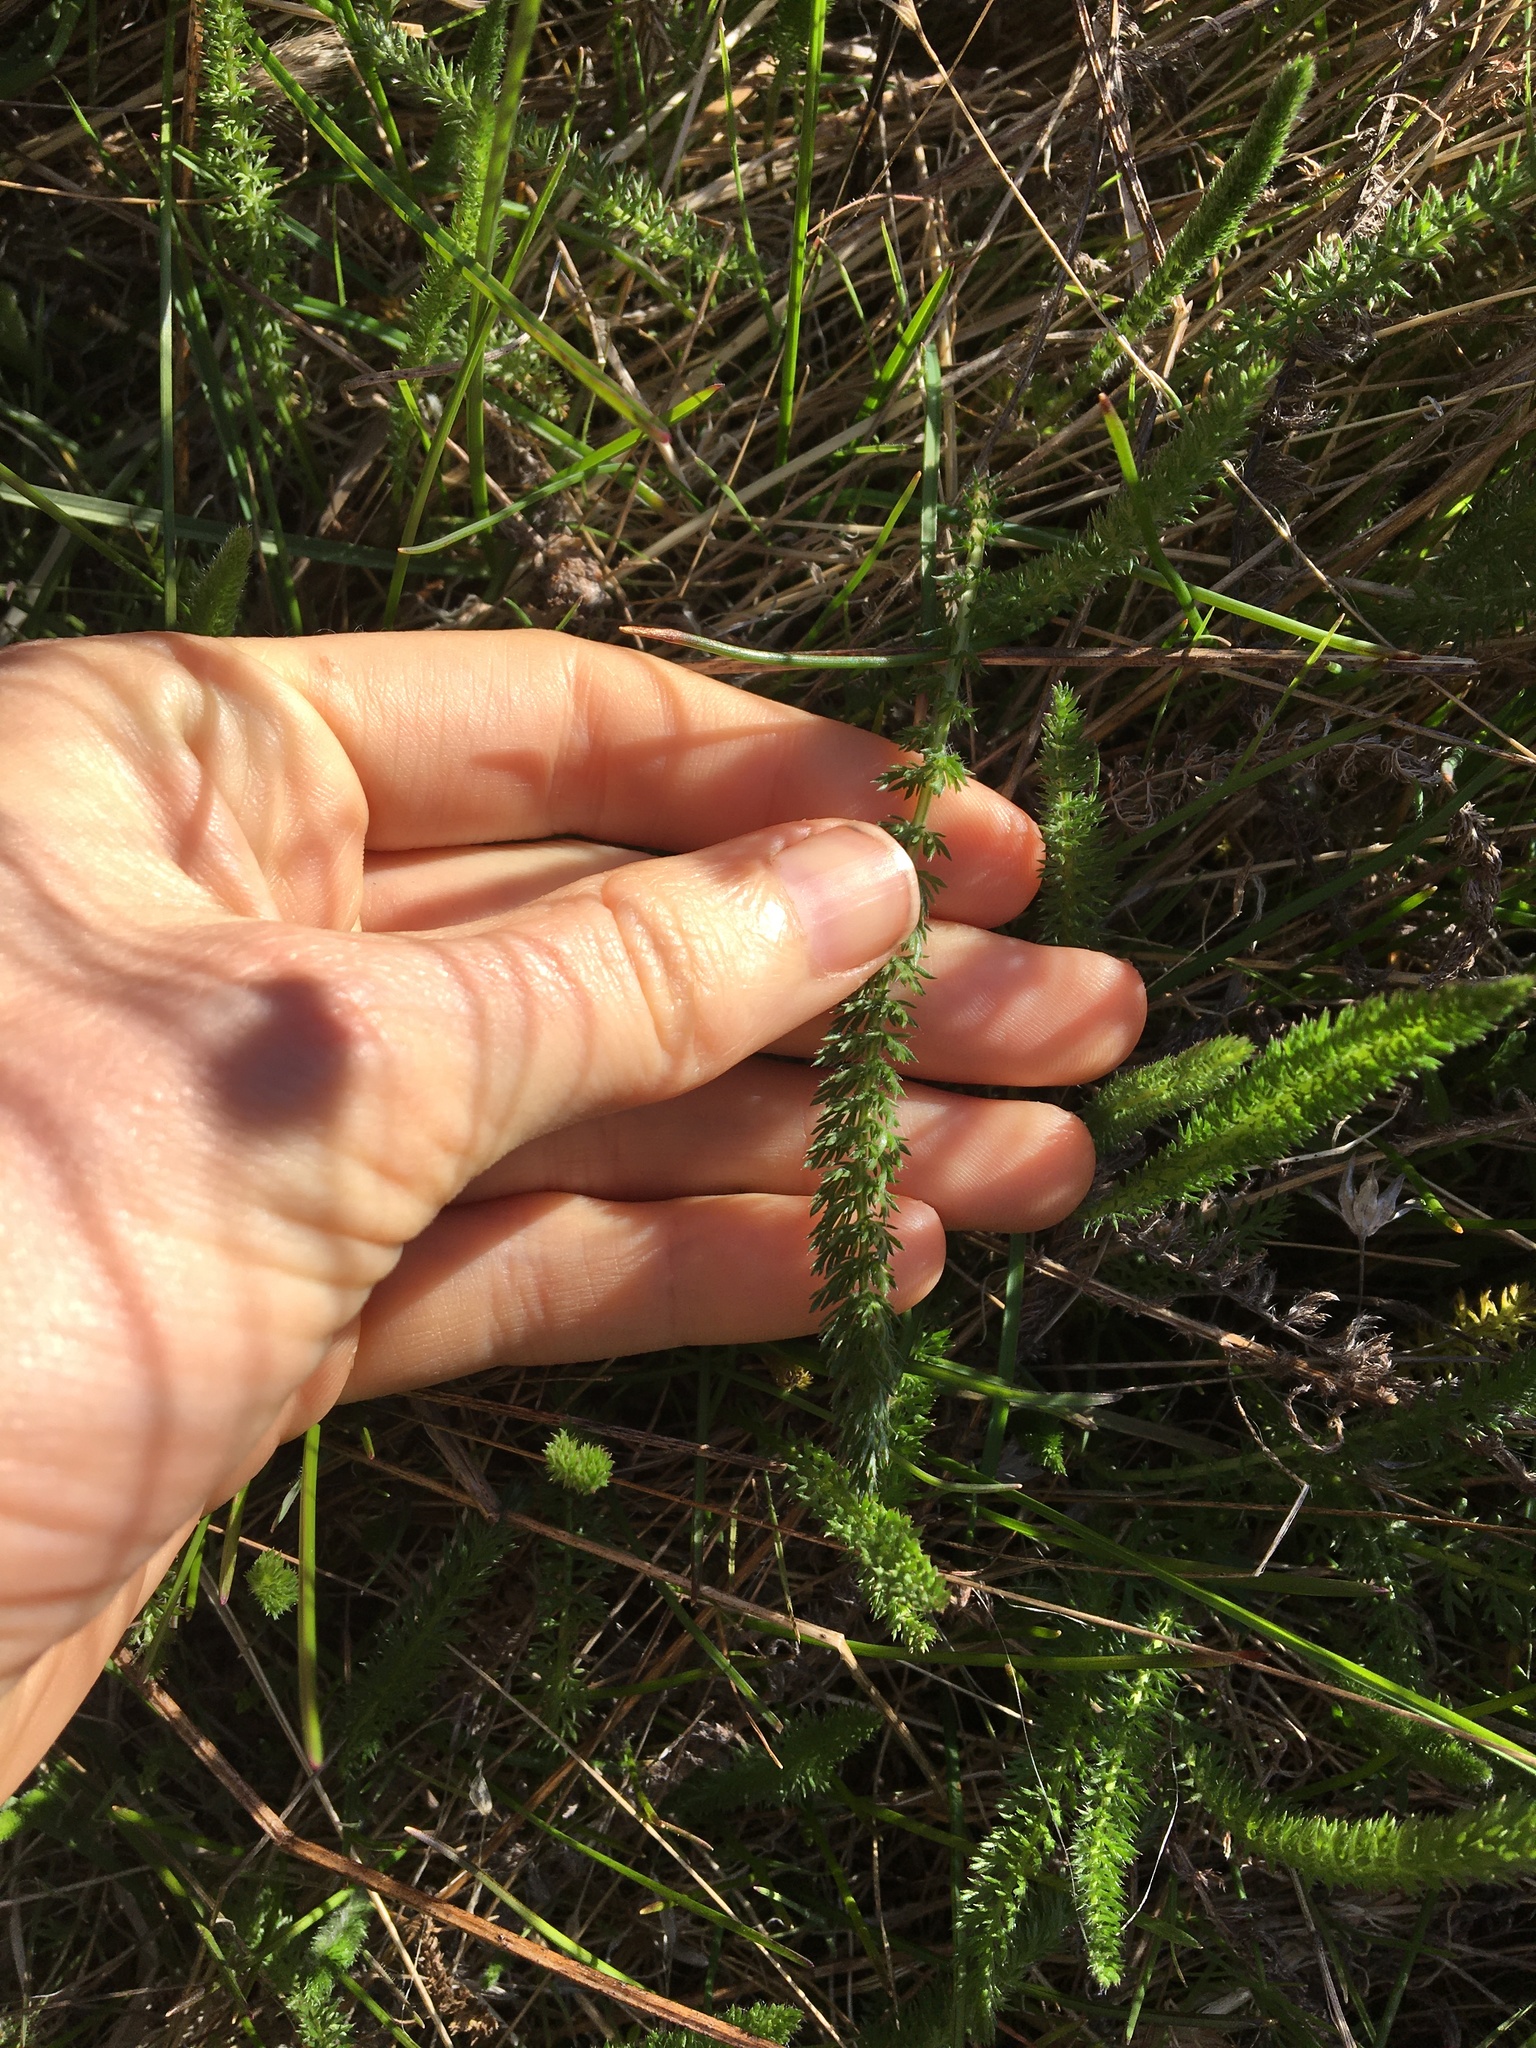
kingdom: Plantae
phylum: Tracheophyta
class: Magnoliopsida
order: Asterales
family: Asteraceae
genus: Achillea
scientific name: Achillea millefolium
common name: Yarrow
